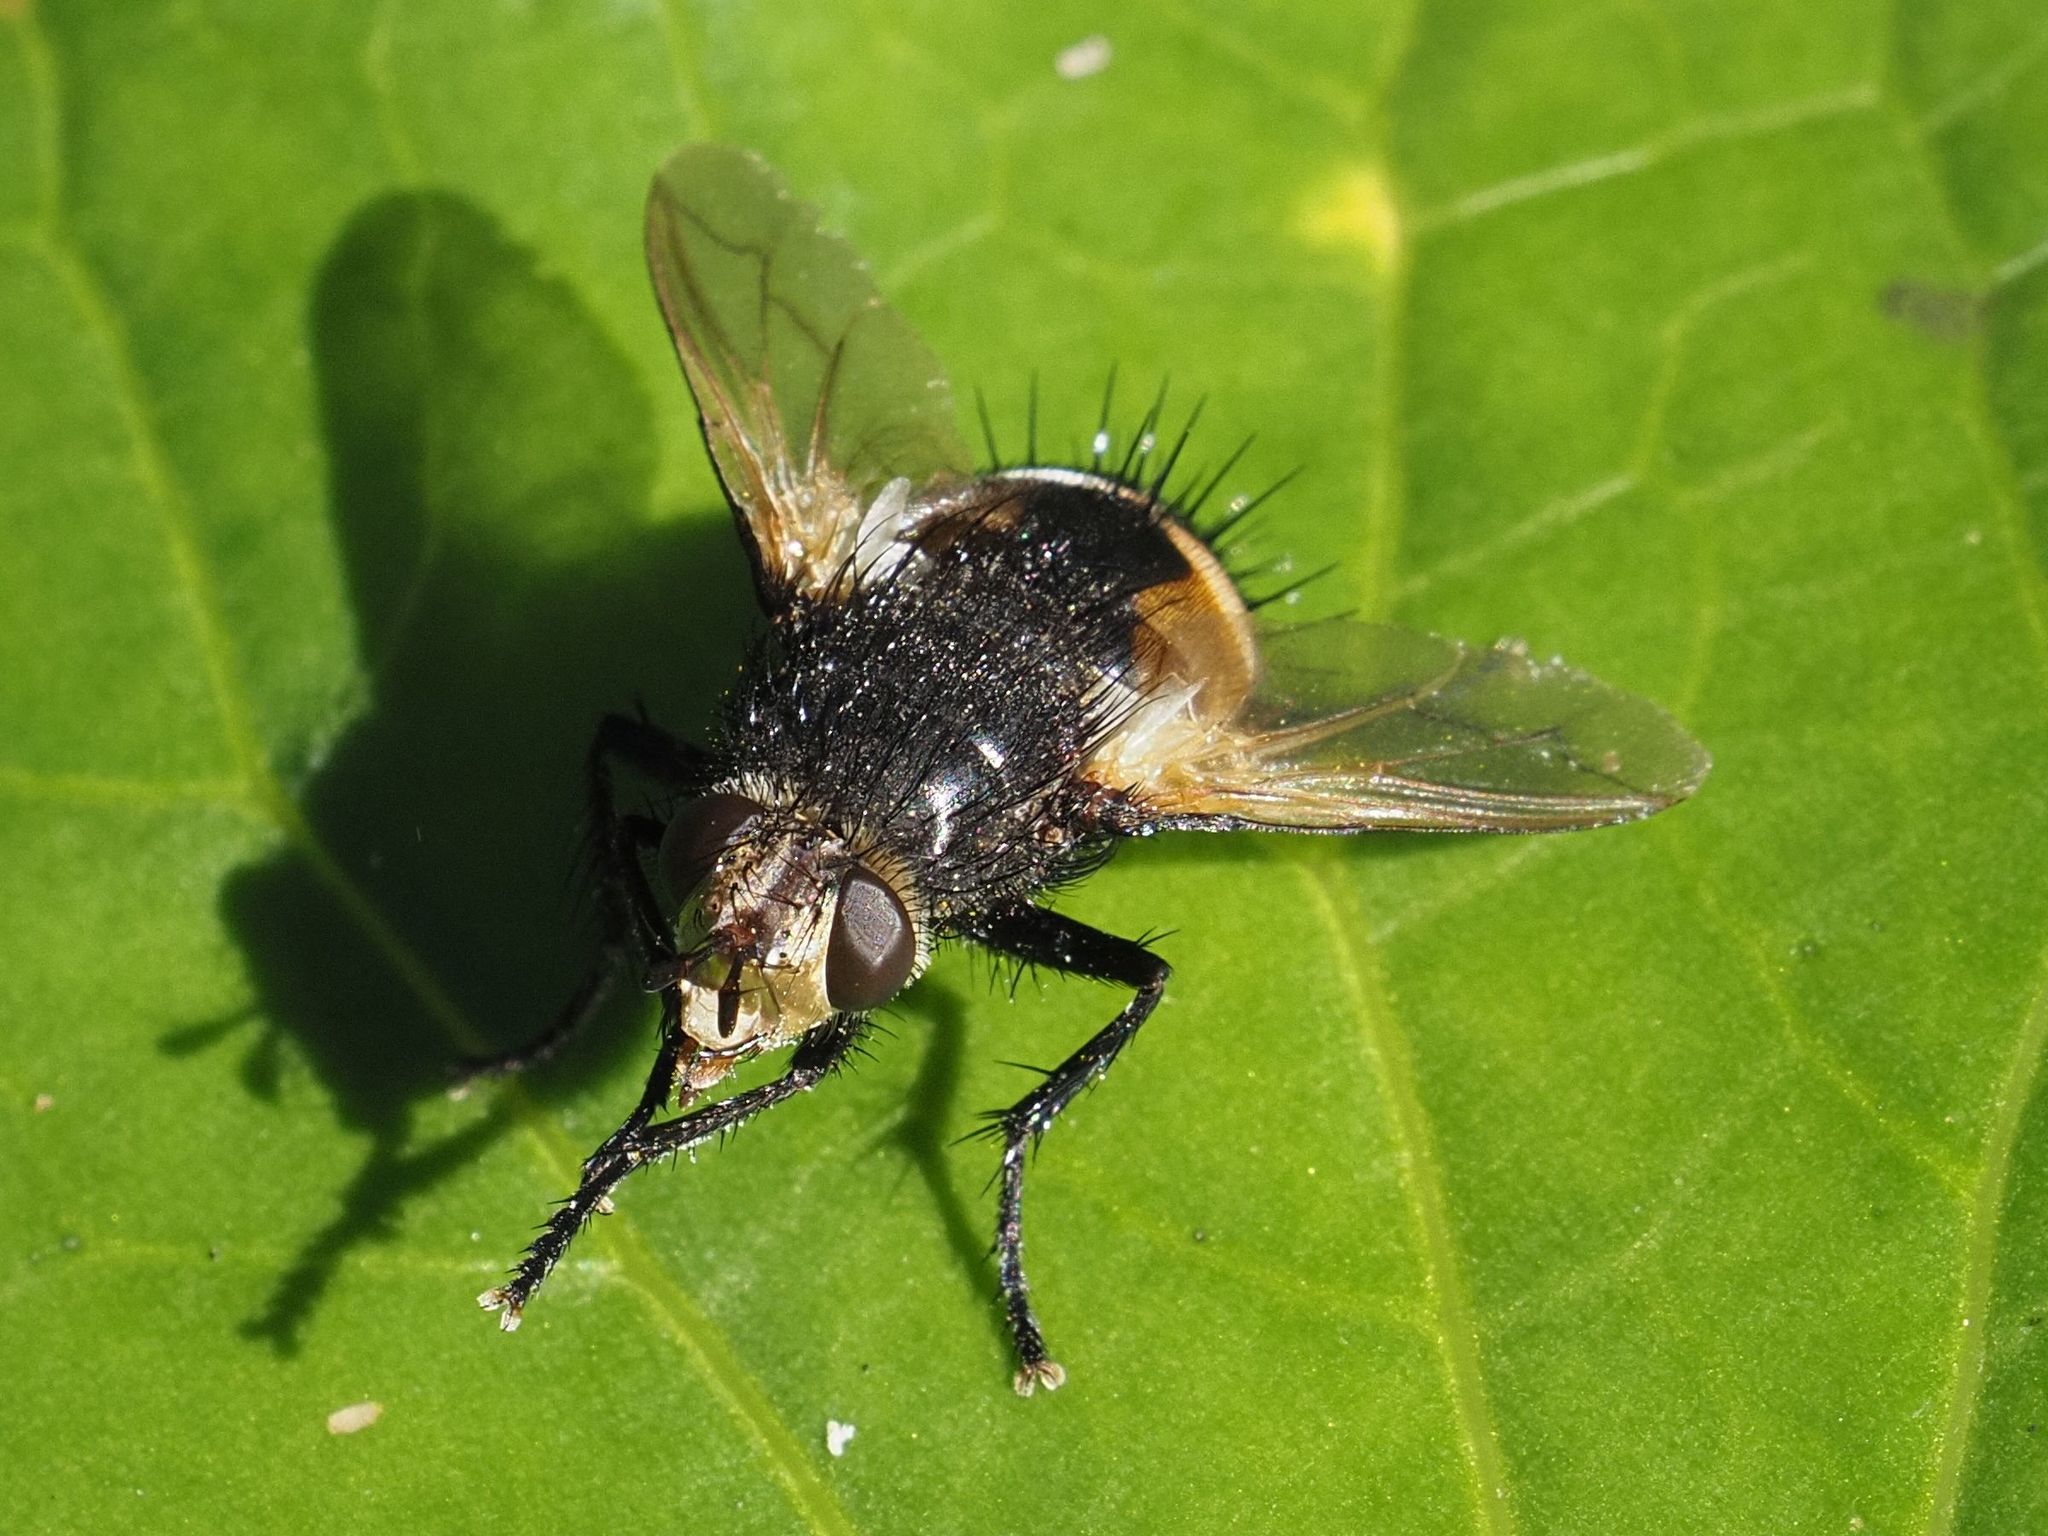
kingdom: Animalia
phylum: Arthropoda
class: Insecta
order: Diptera
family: Tachinidae
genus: Nowickia
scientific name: Nowickia ferox
